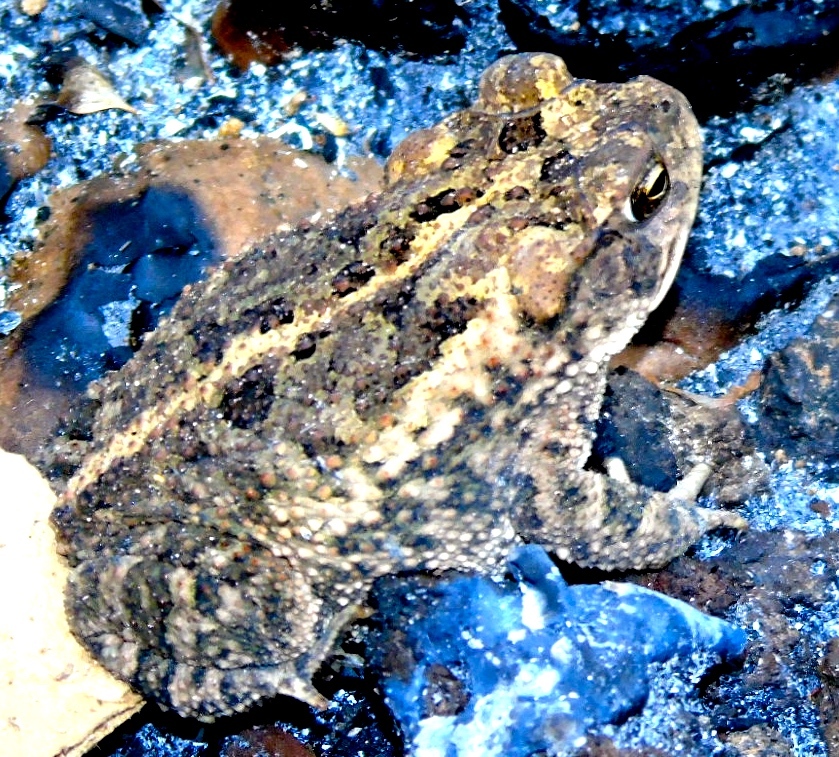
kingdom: Animalia
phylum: Chordata
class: Amphibia
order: Anura
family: Bufonidae
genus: Incilius
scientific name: Incilius mazatlanensis
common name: Sinaloa toad
